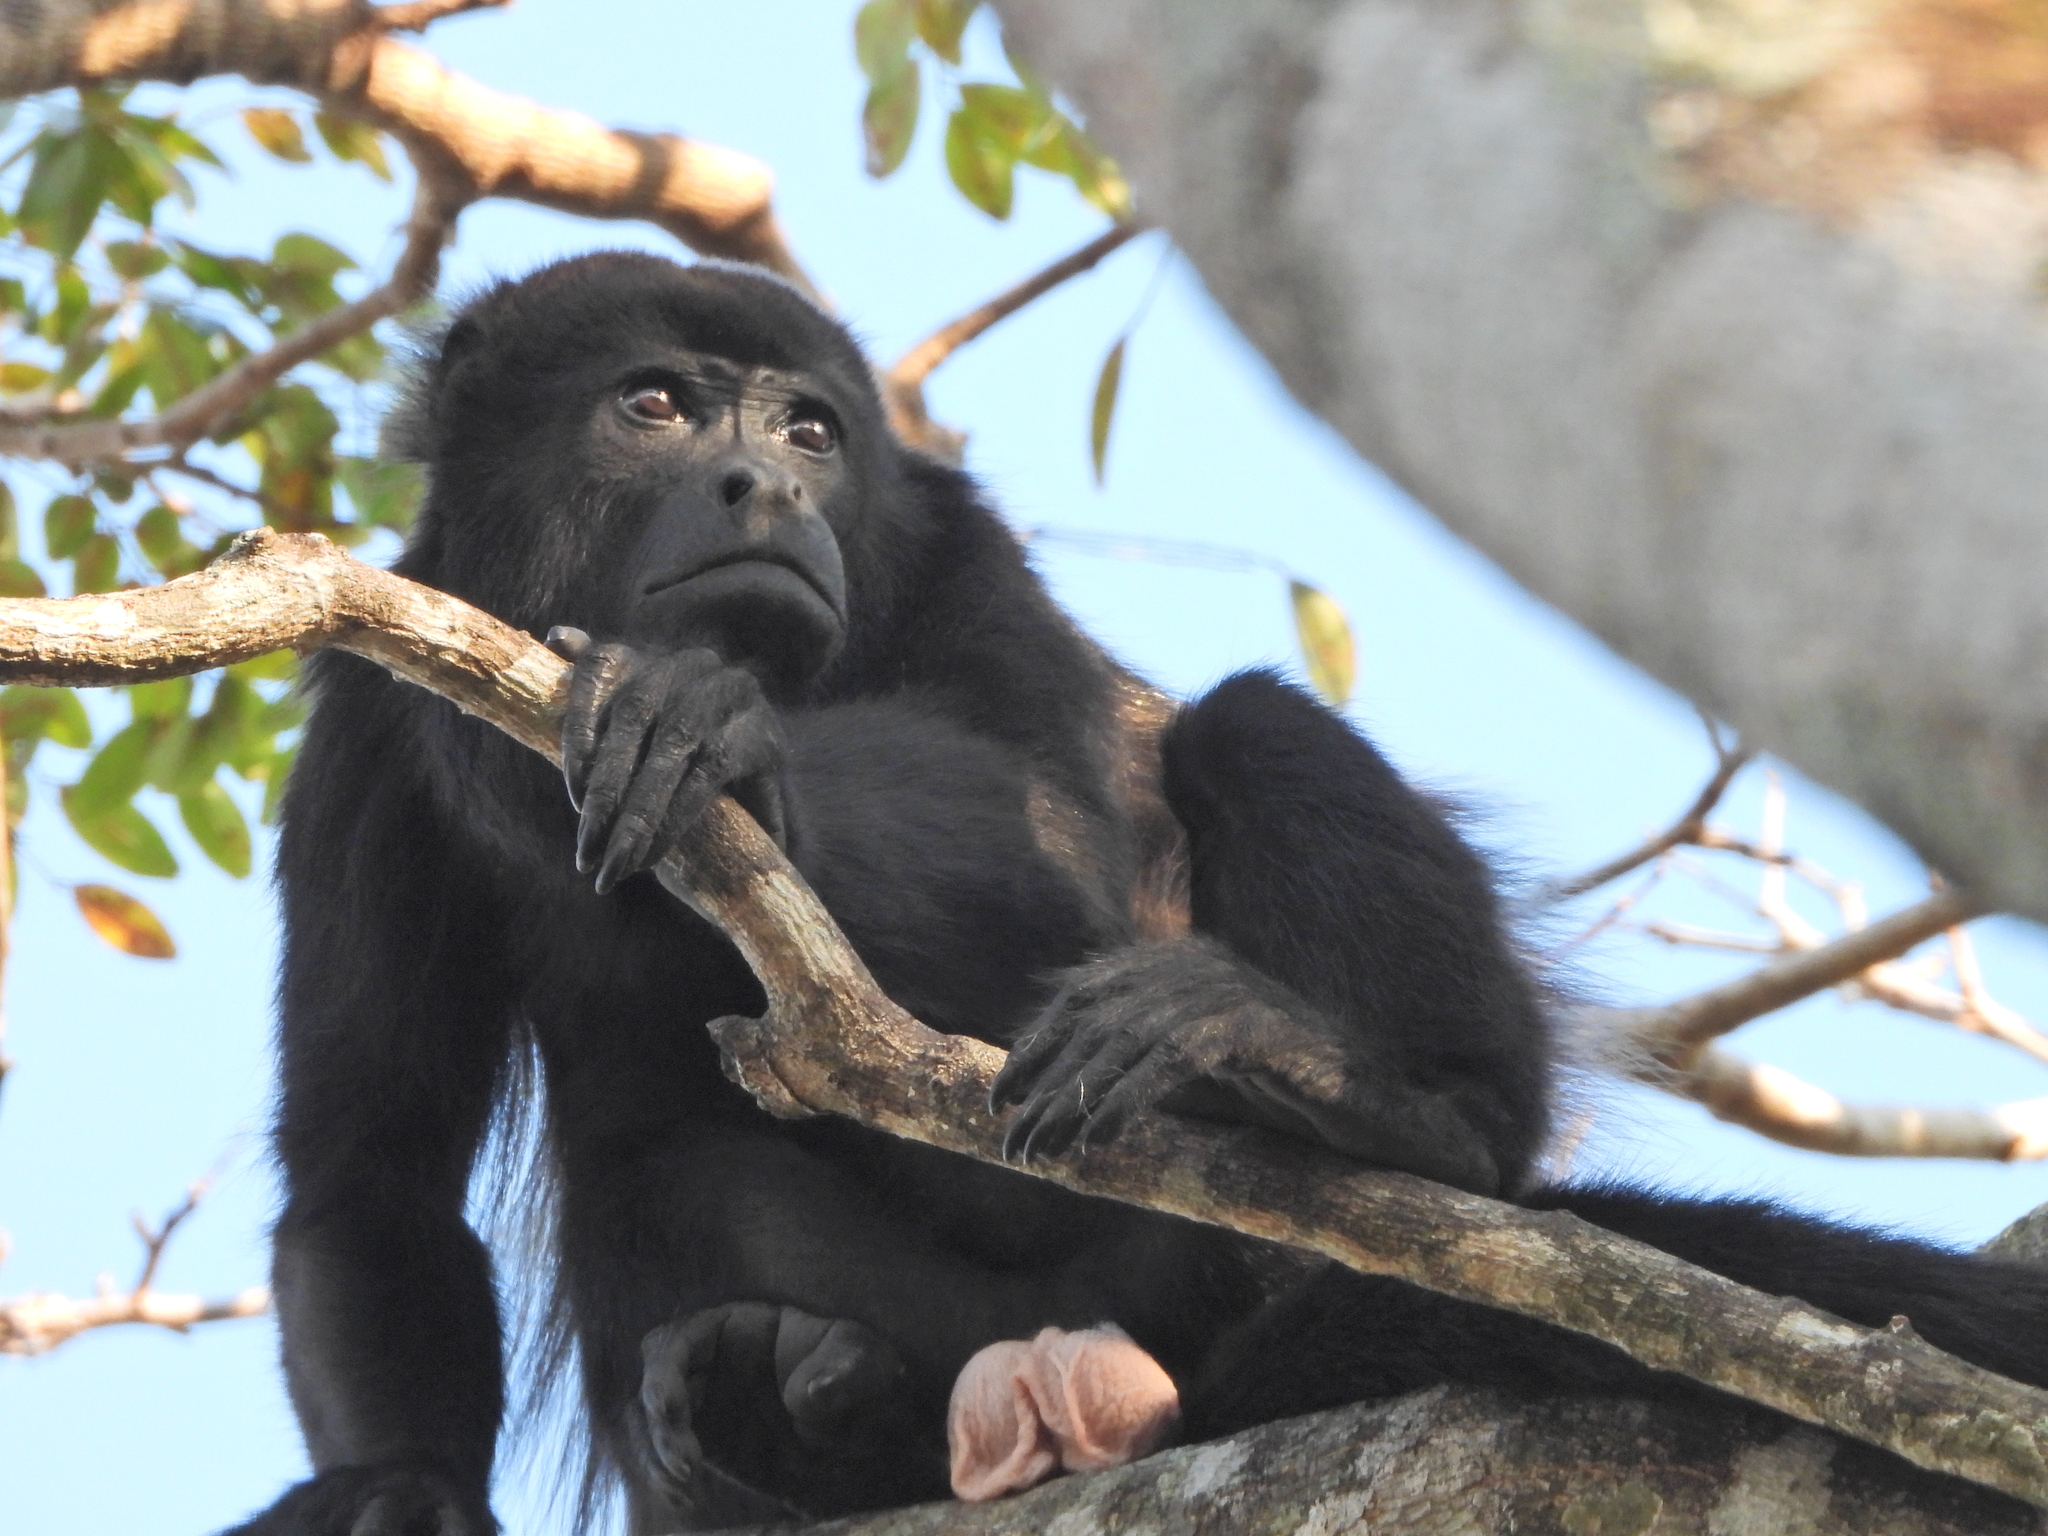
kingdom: Animalia
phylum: Chordata
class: Mammalia
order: Primates
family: Atelidae
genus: Alouatta
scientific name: Alouatta palliata
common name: Mantled howler
